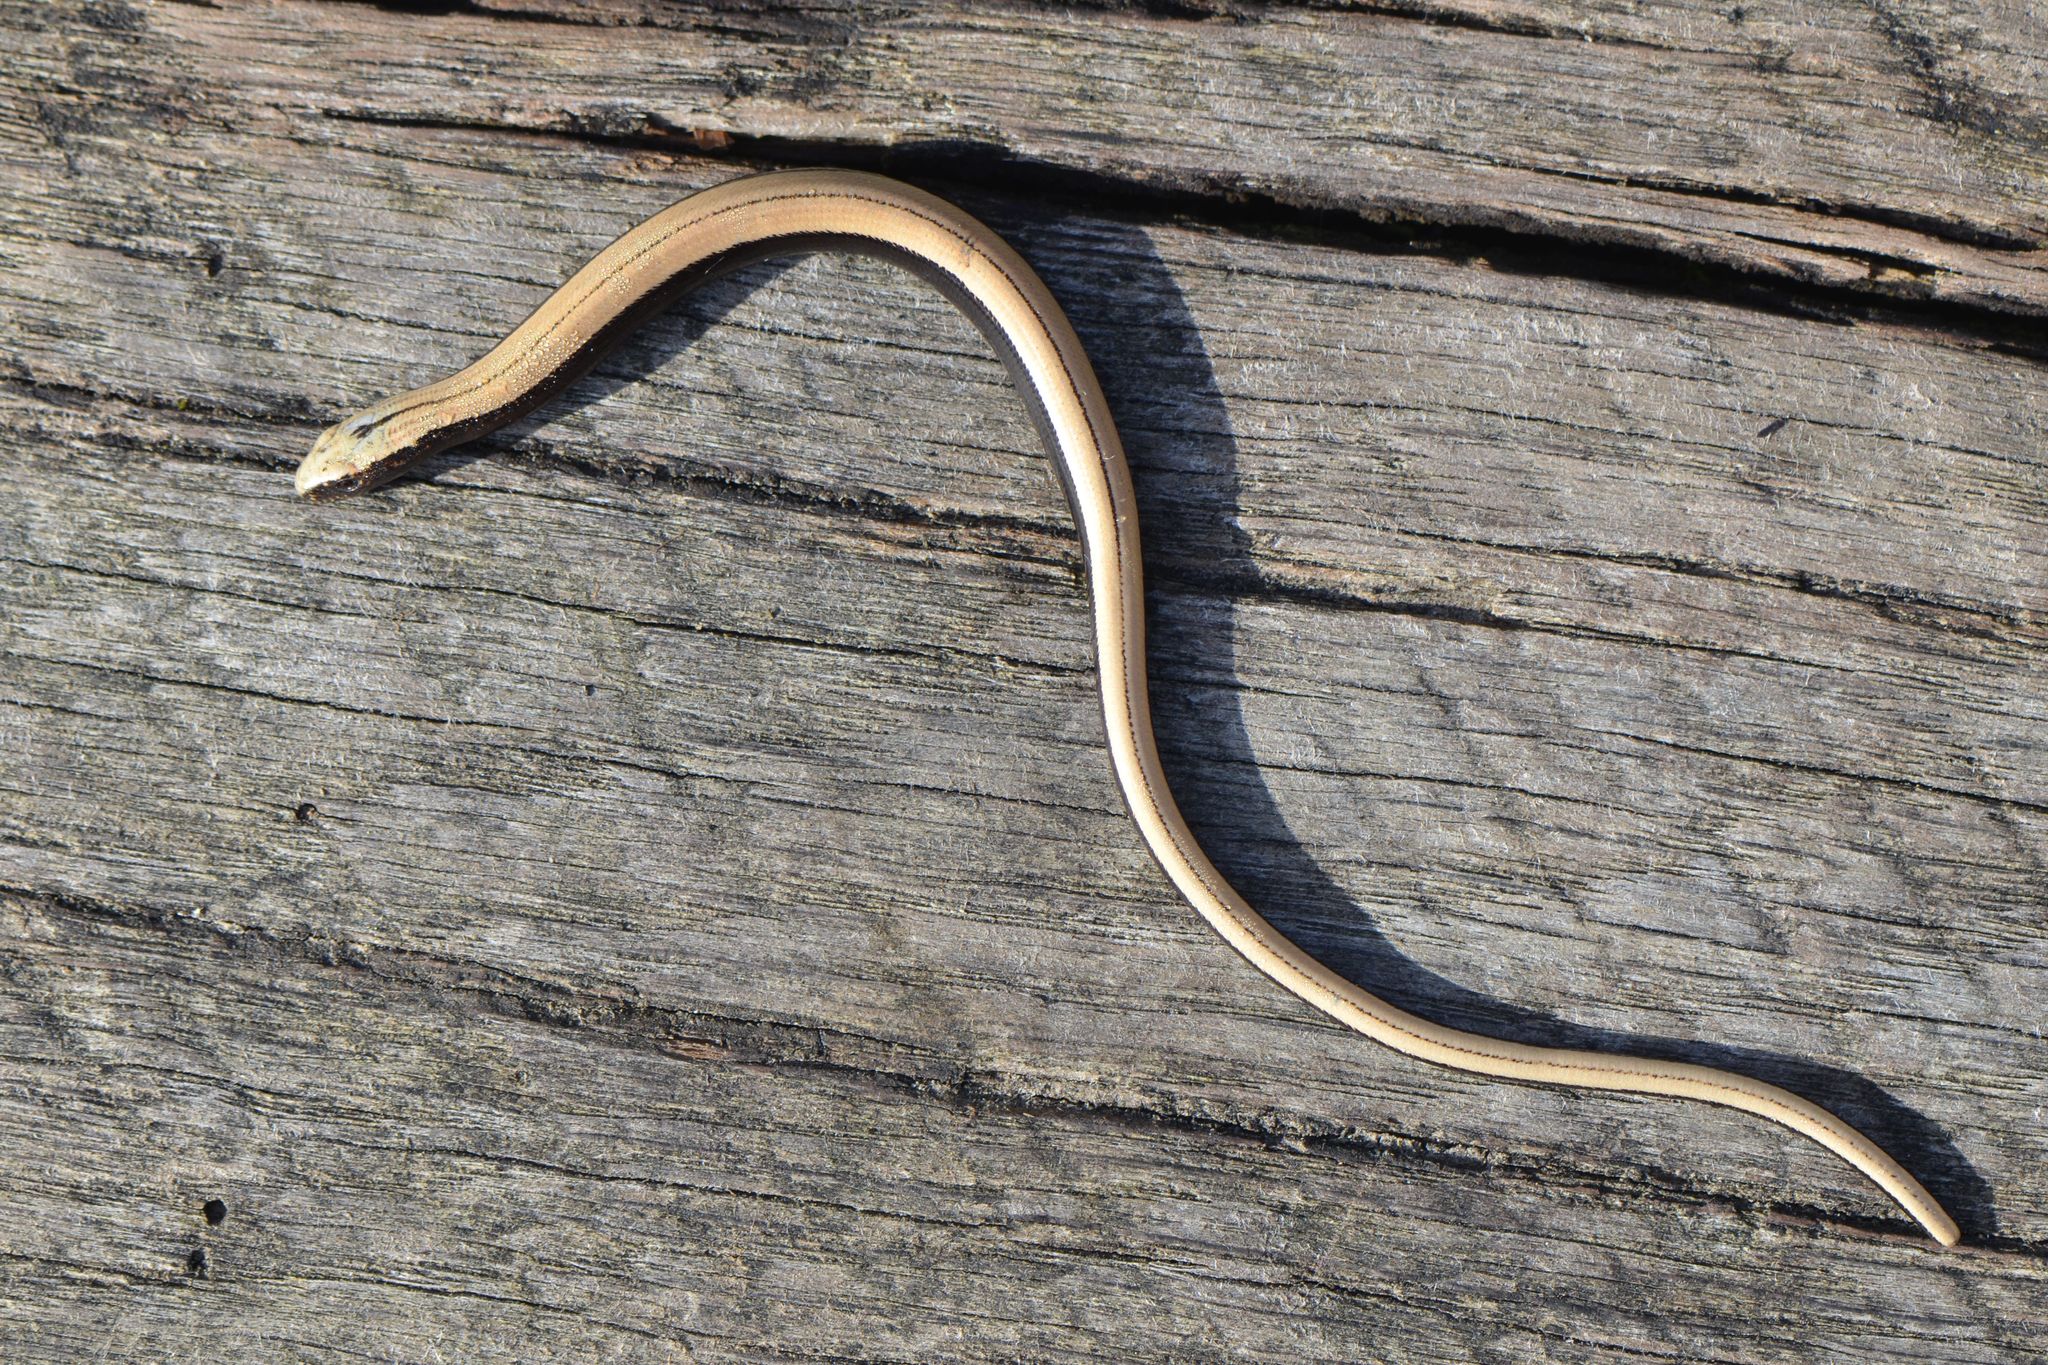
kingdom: Animalia
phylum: Chordata
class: Squamata
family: Anguidae
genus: Anguis
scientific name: Anguis fragilis
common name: Slow worm
